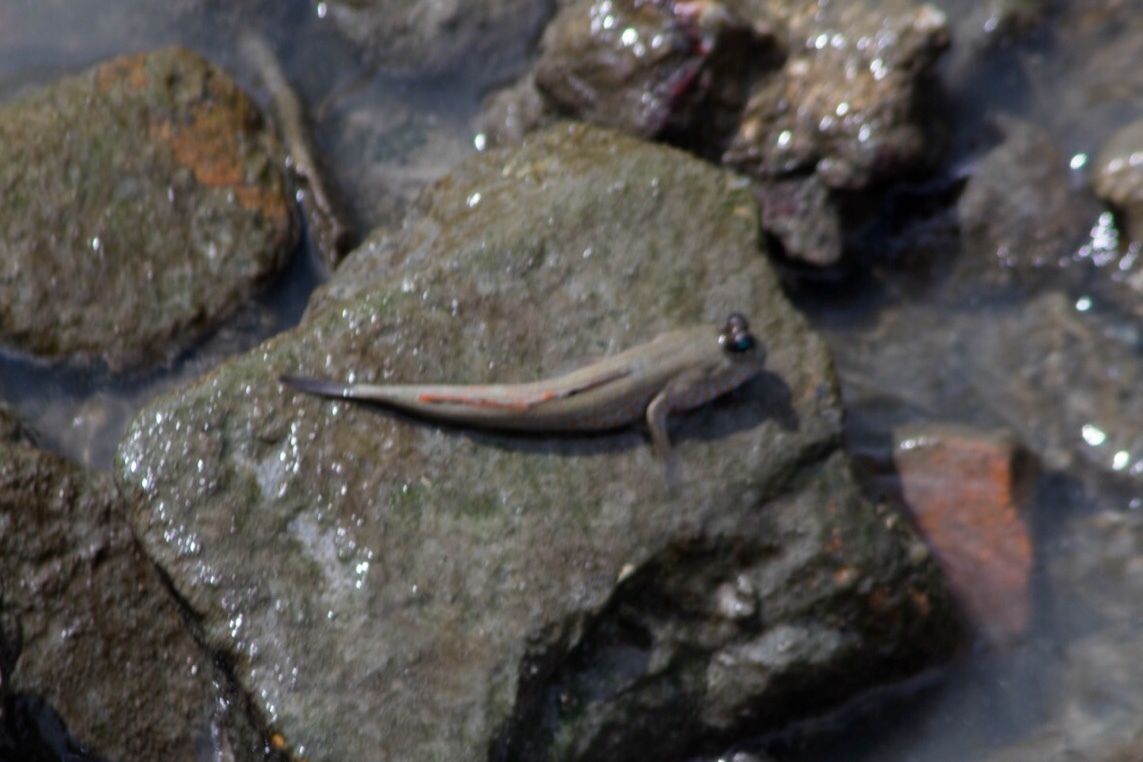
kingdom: Animalia
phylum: Chordata
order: Perciformes
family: Gobiidae
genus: Periophthalmodon
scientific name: Periophthalmodon schlosseri
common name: Giant mudskipper
